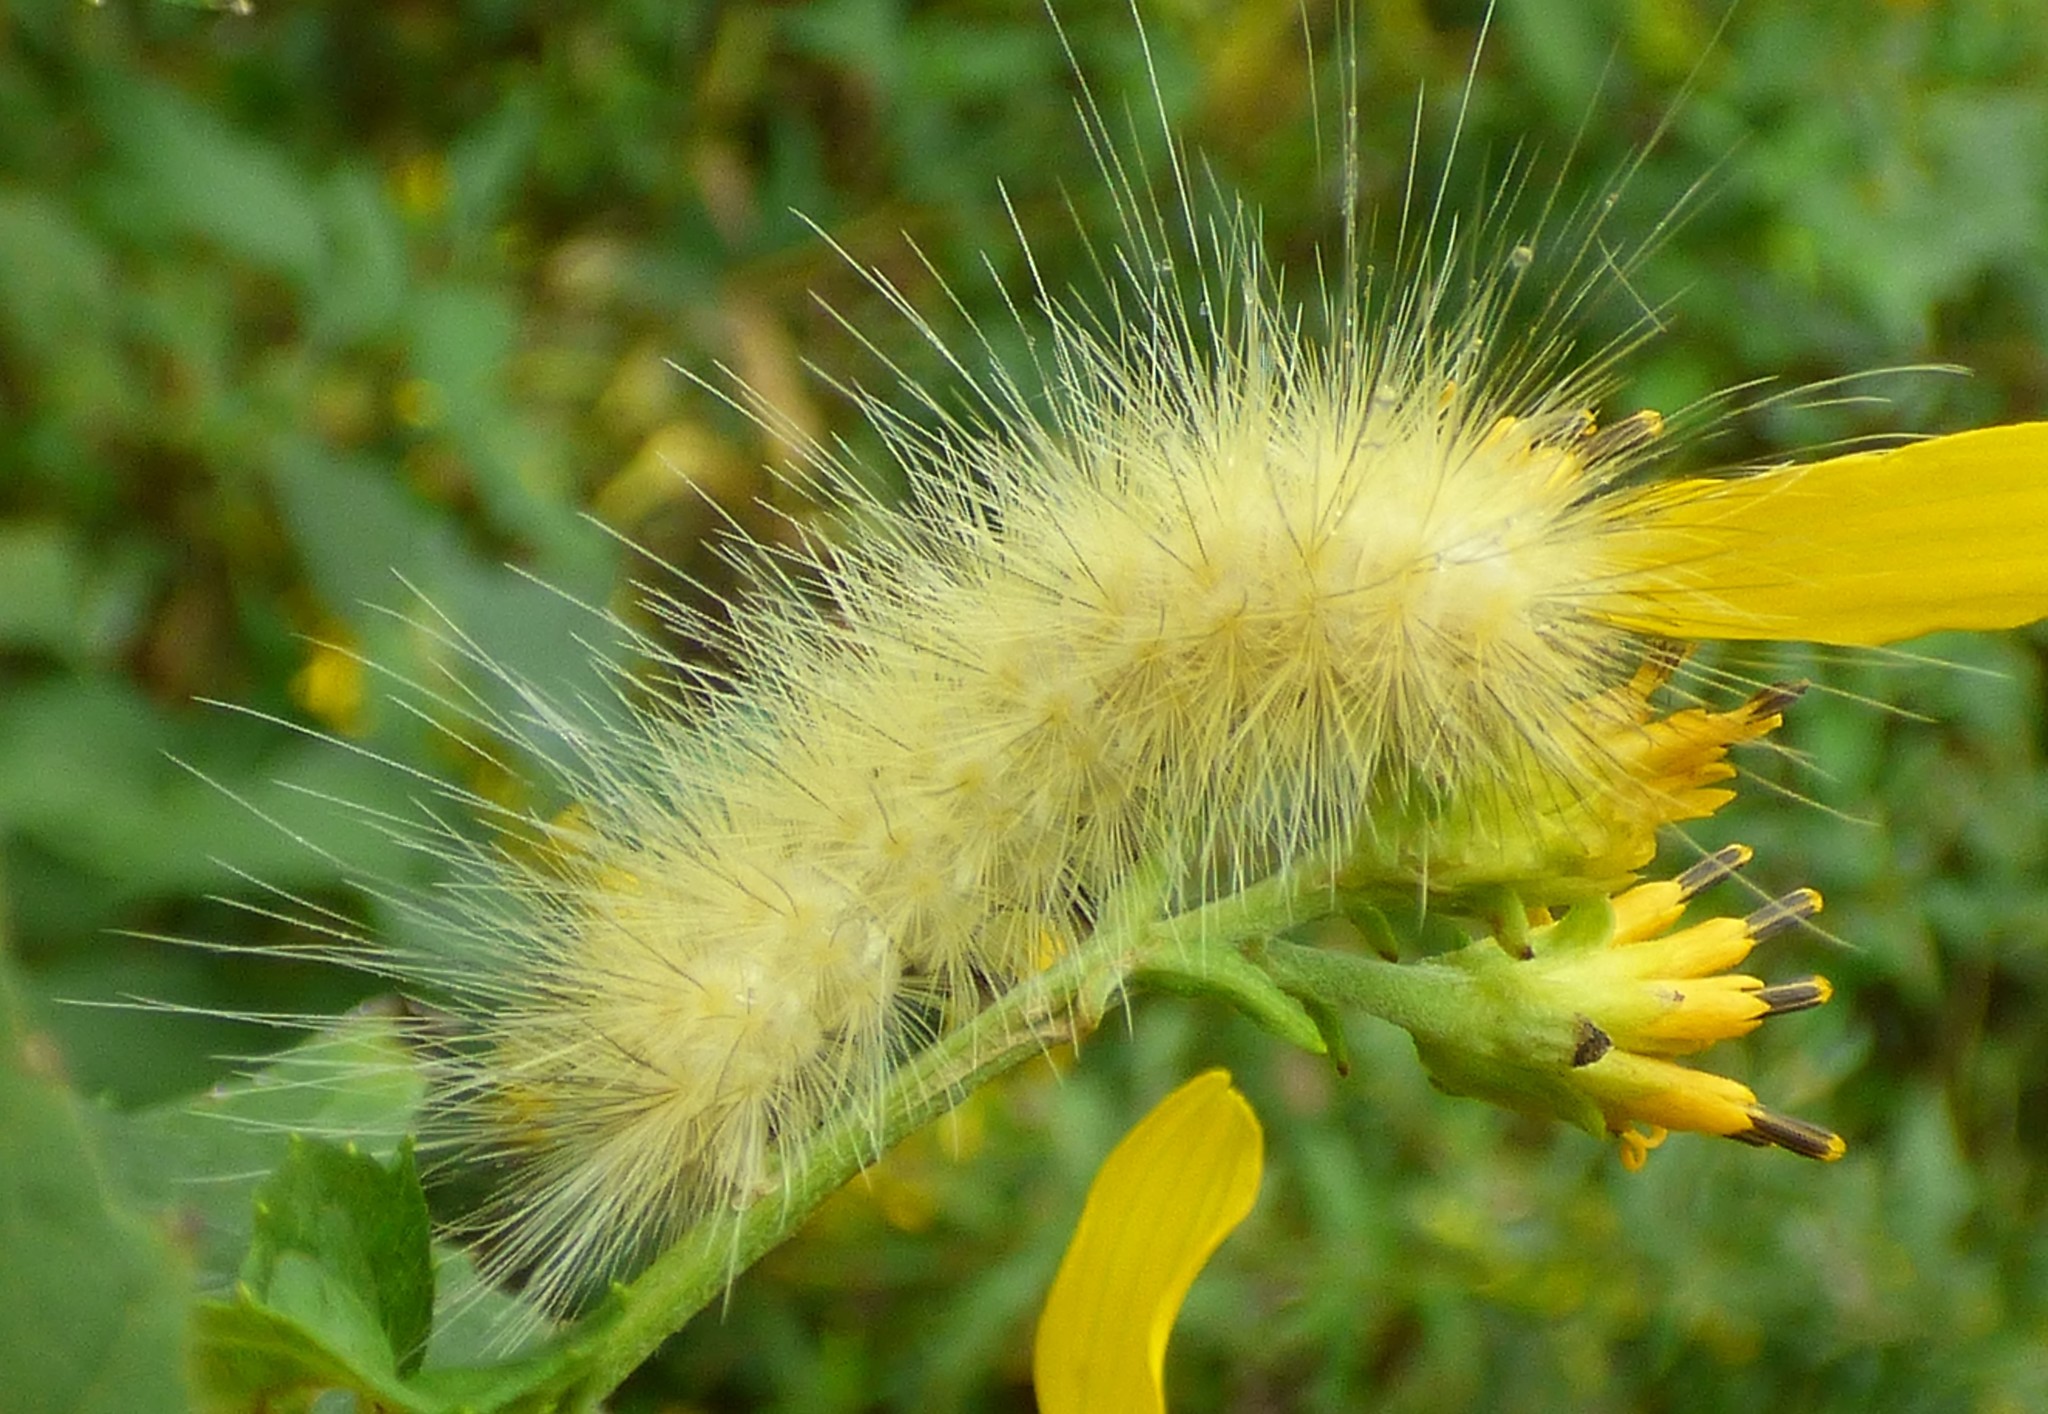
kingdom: Animalia
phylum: Arthropoda
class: Insecta
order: Lepidoptera
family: Erebidae
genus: Spilosoma
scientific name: Spilosoma virginica
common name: Virginia tiger moth
